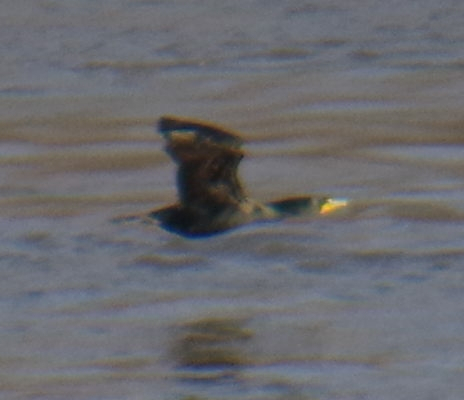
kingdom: Animalia
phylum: Chordata
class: Aves
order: Suliformes
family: Phalacrocoracidae
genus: Phalacrocorax
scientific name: Phalacrocorax auritus
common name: Double-crested cormorant
